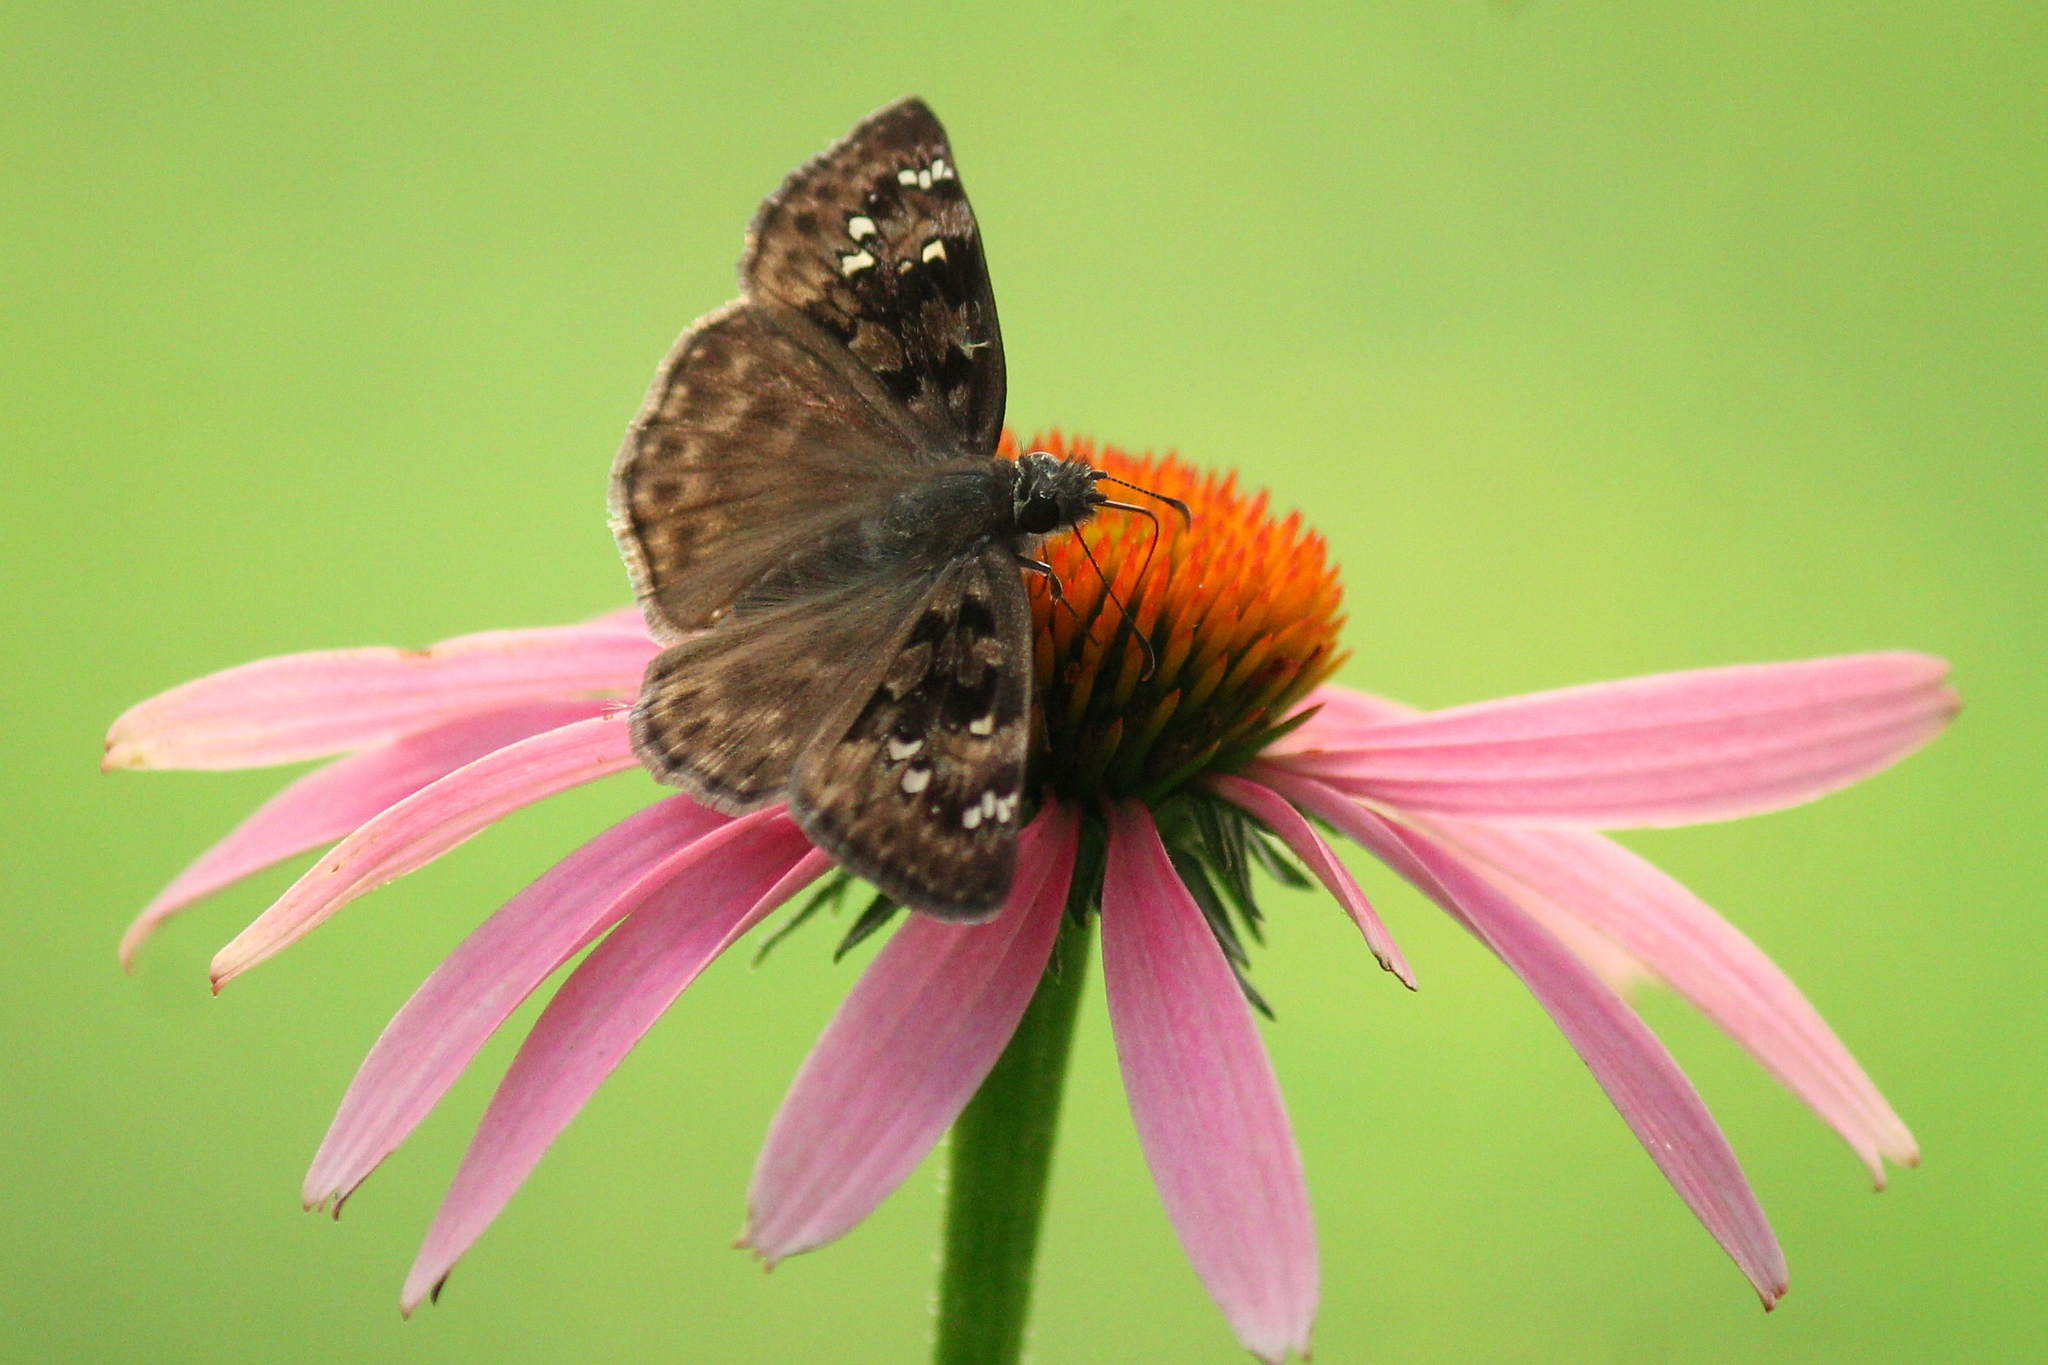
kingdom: Animalia
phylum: Arthropoda
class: Insecta
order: Lepidoptera
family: Hesperiidae
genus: Erynnis
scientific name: Erynnis horatius
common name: Horace's duskywing
